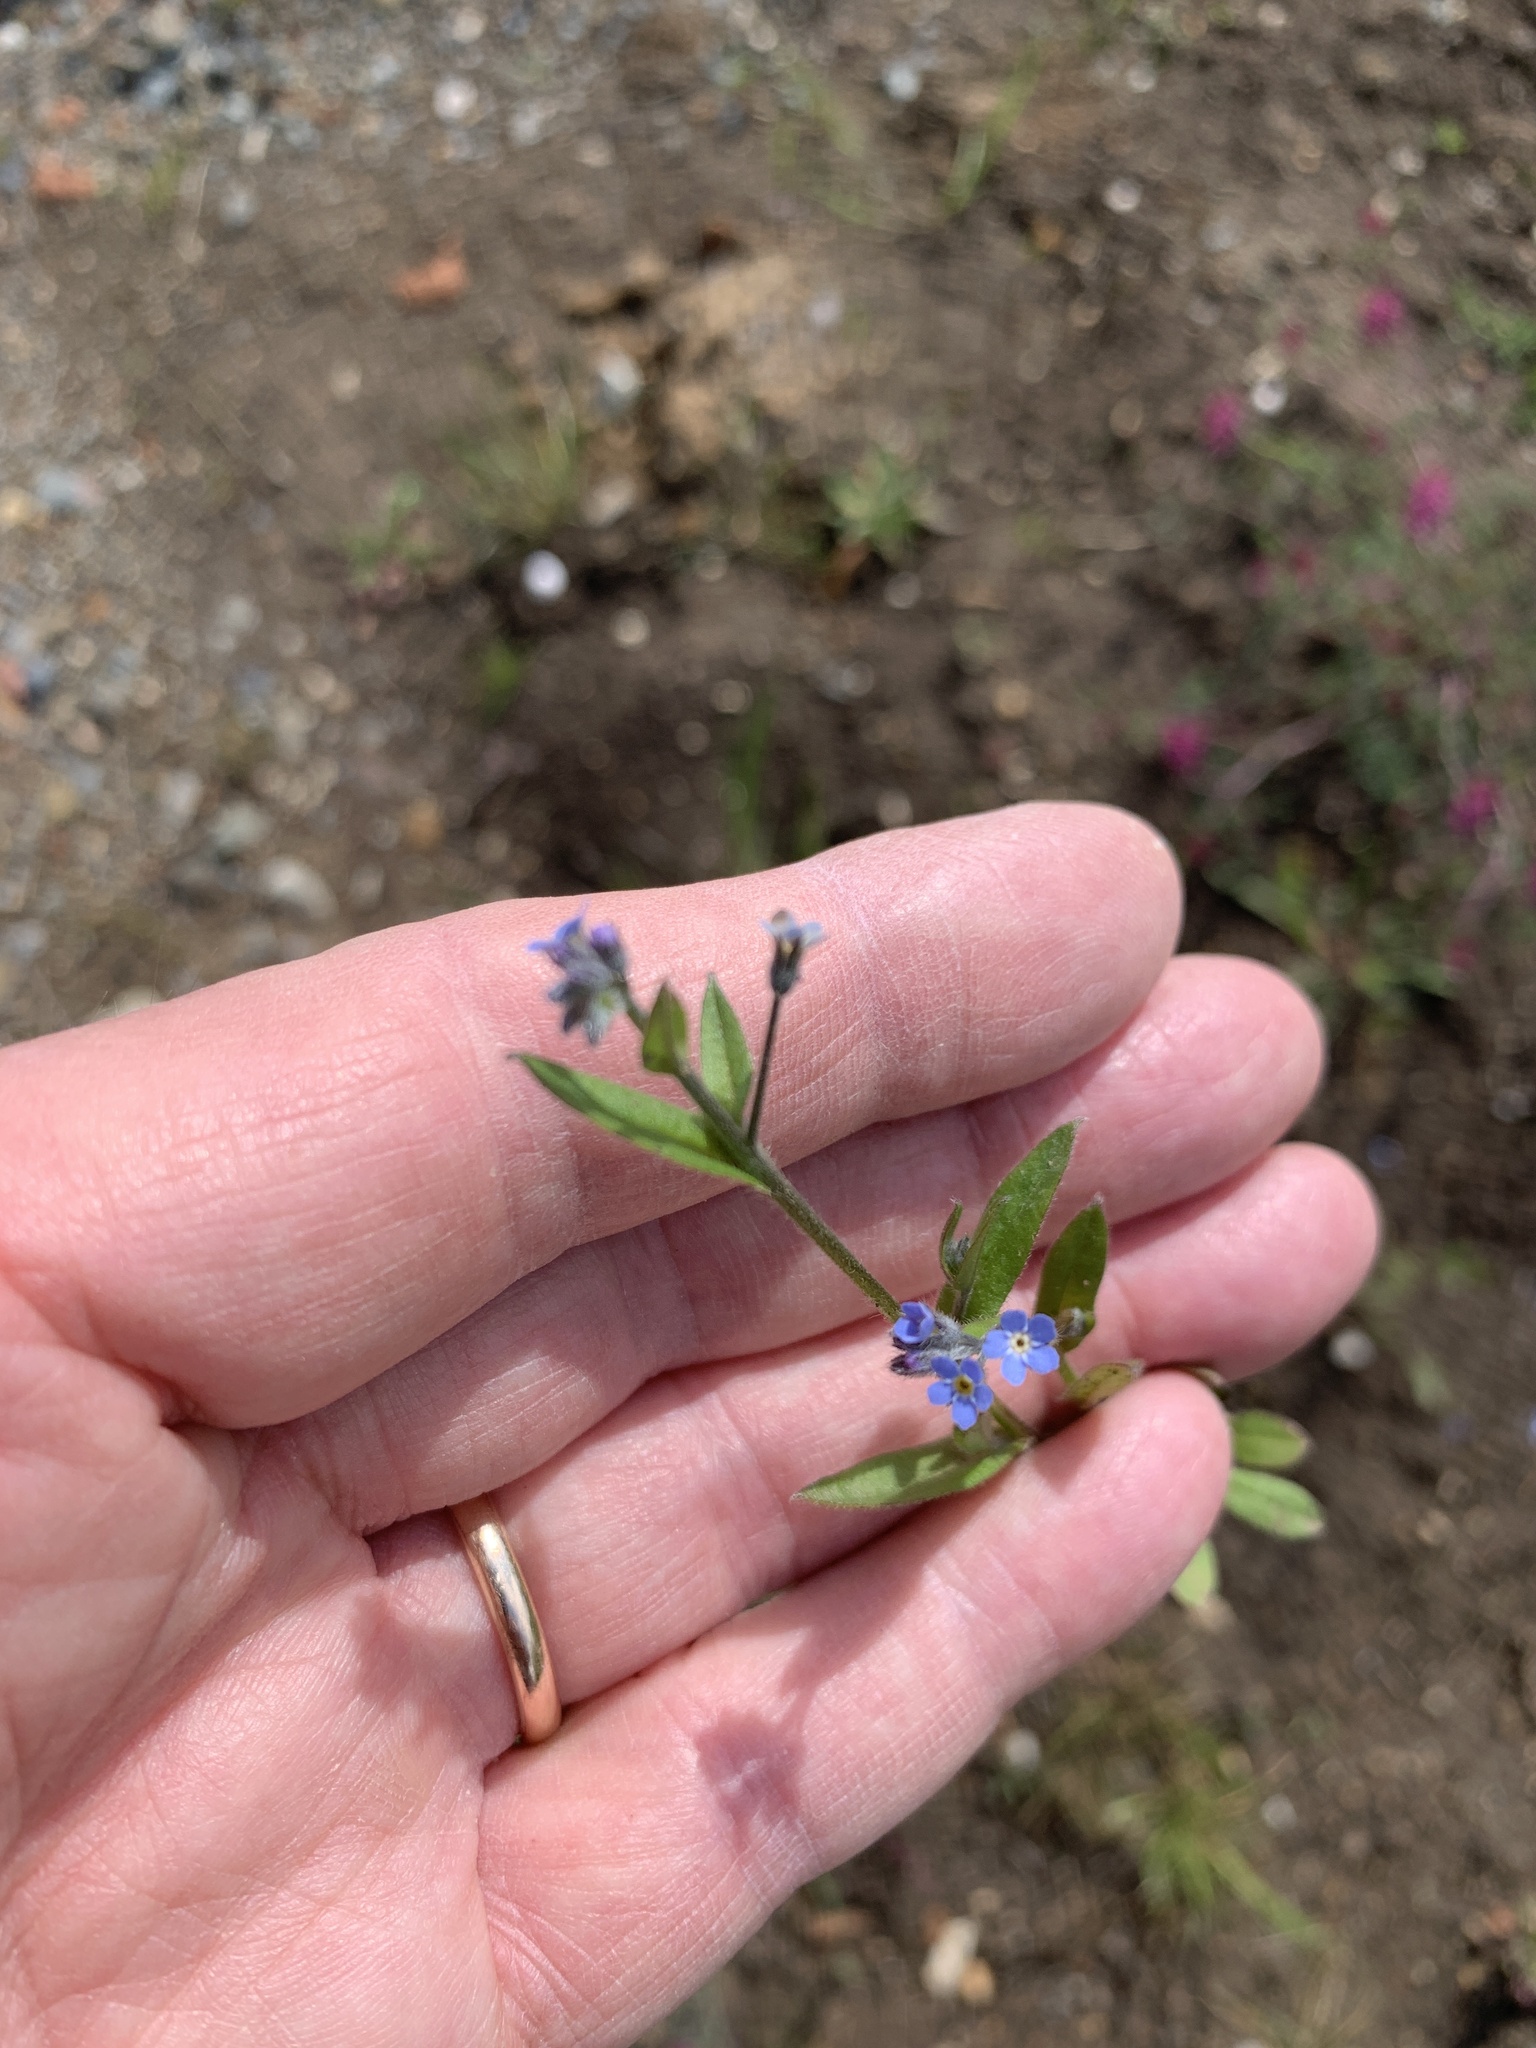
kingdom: Plantae
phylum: Tracheophyta
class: Magnoliopsida
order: Boraginales
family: Boraginaceae
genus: Myosotis
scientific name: Myosotis arvensis
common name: Field forget-me-not
